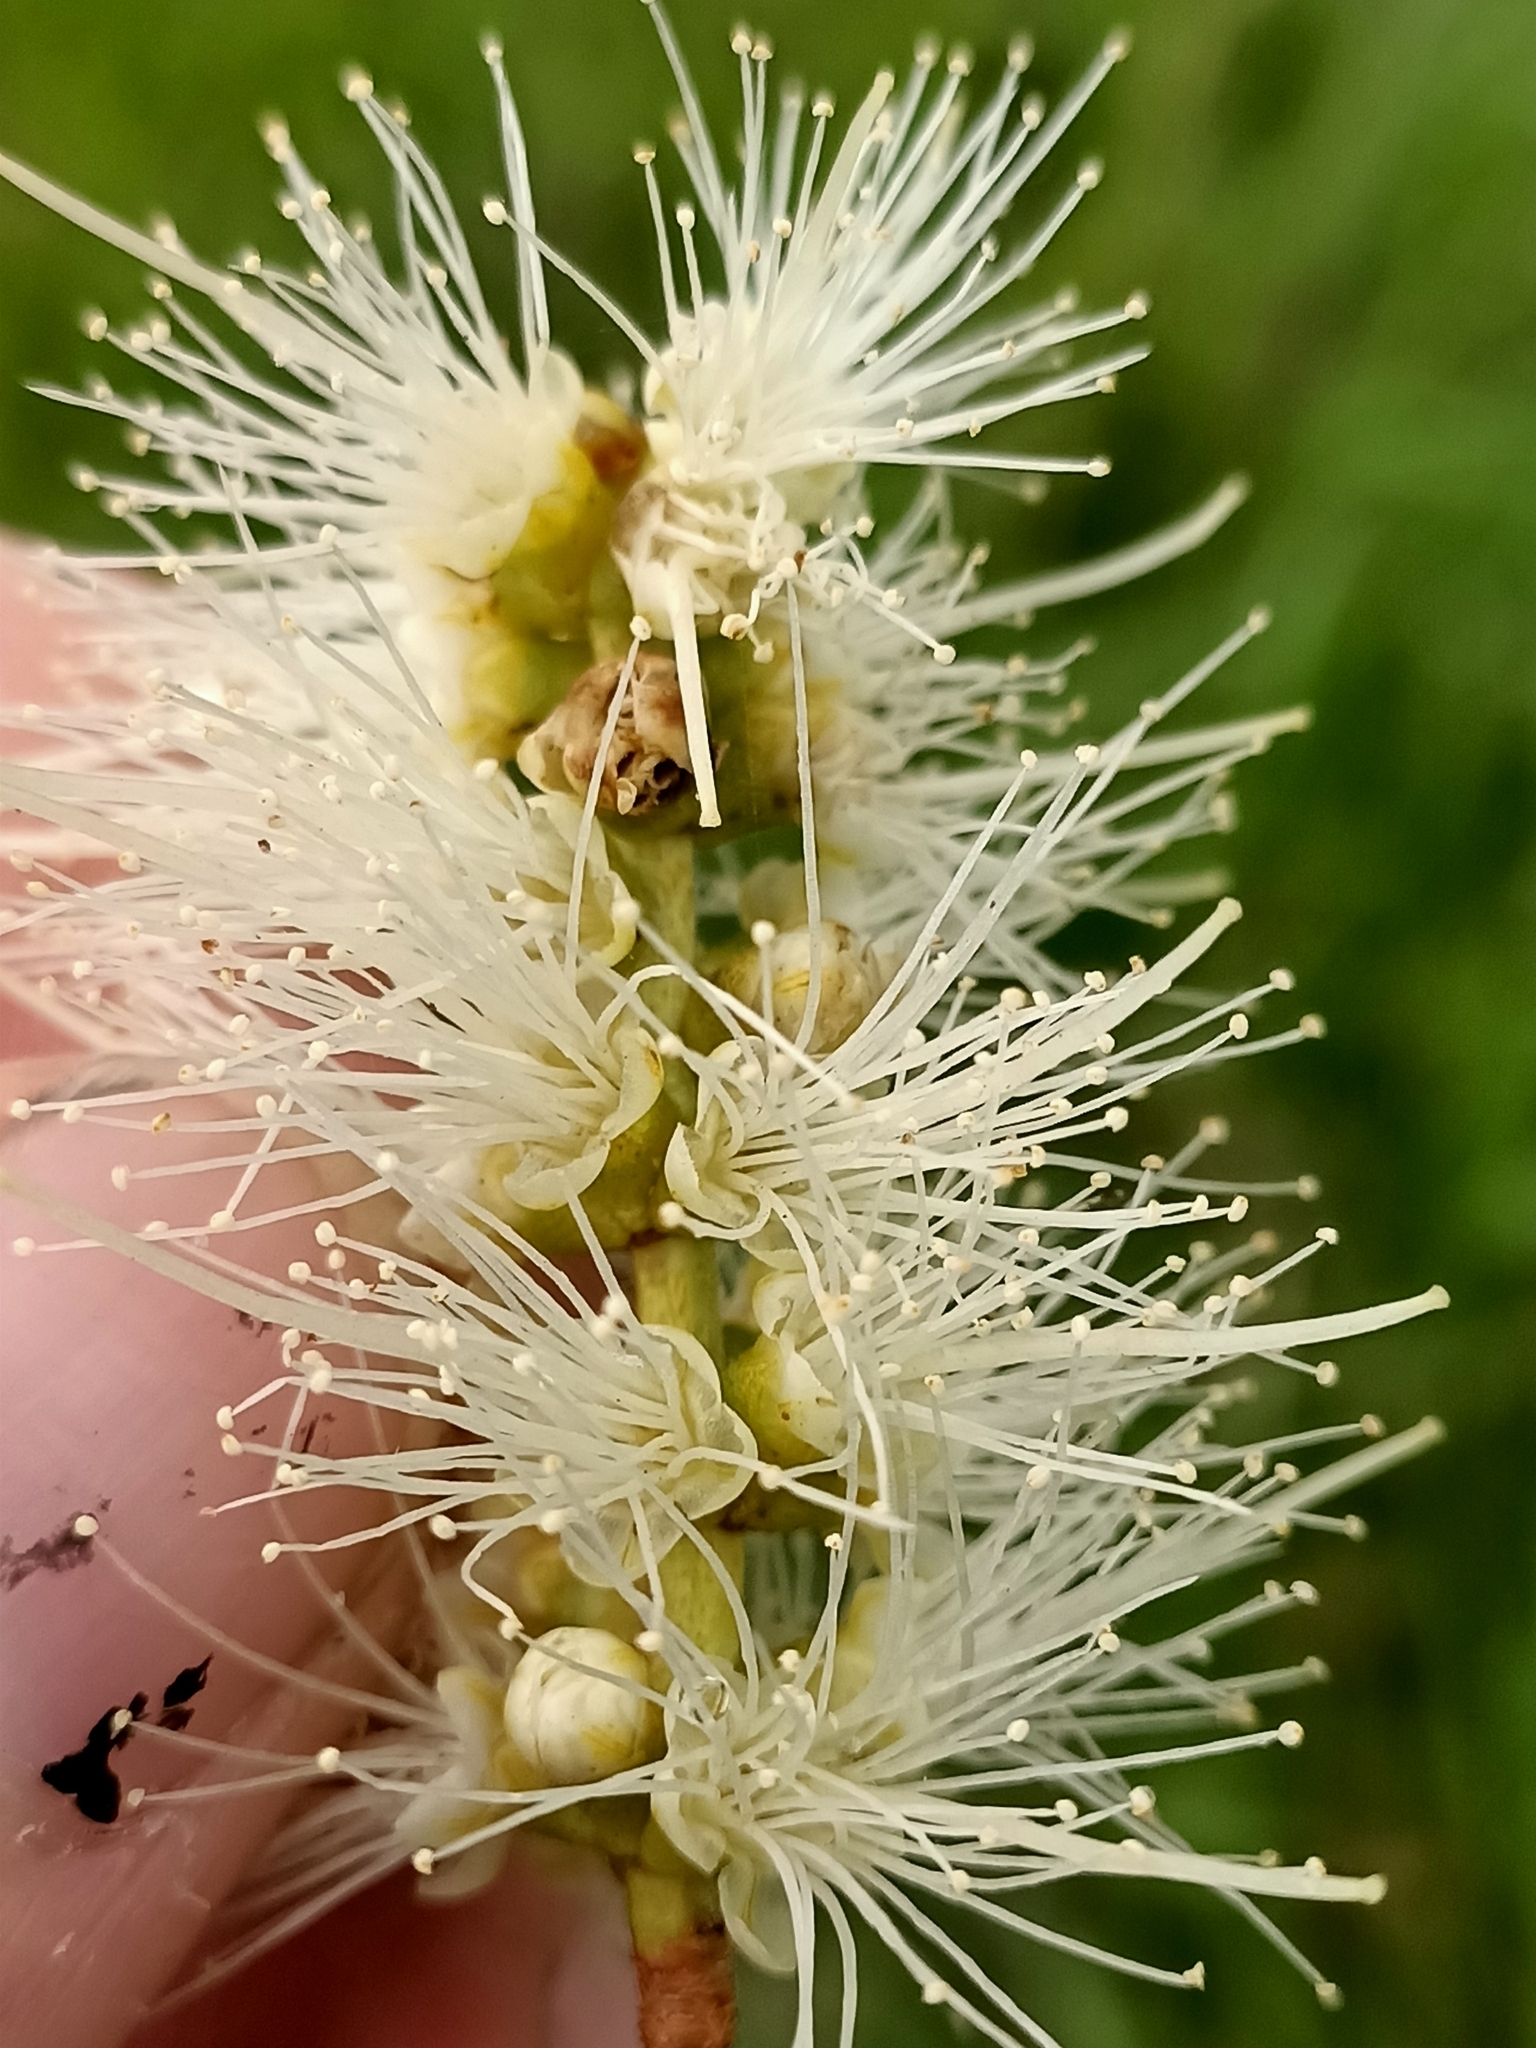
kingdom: Plantae
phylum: Tracheophyta
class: Magnoliopsida
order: Myrtales
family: Myrtaceae
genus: Melaleuca
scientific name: Melaleuca quinquenervia
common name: Punktree
